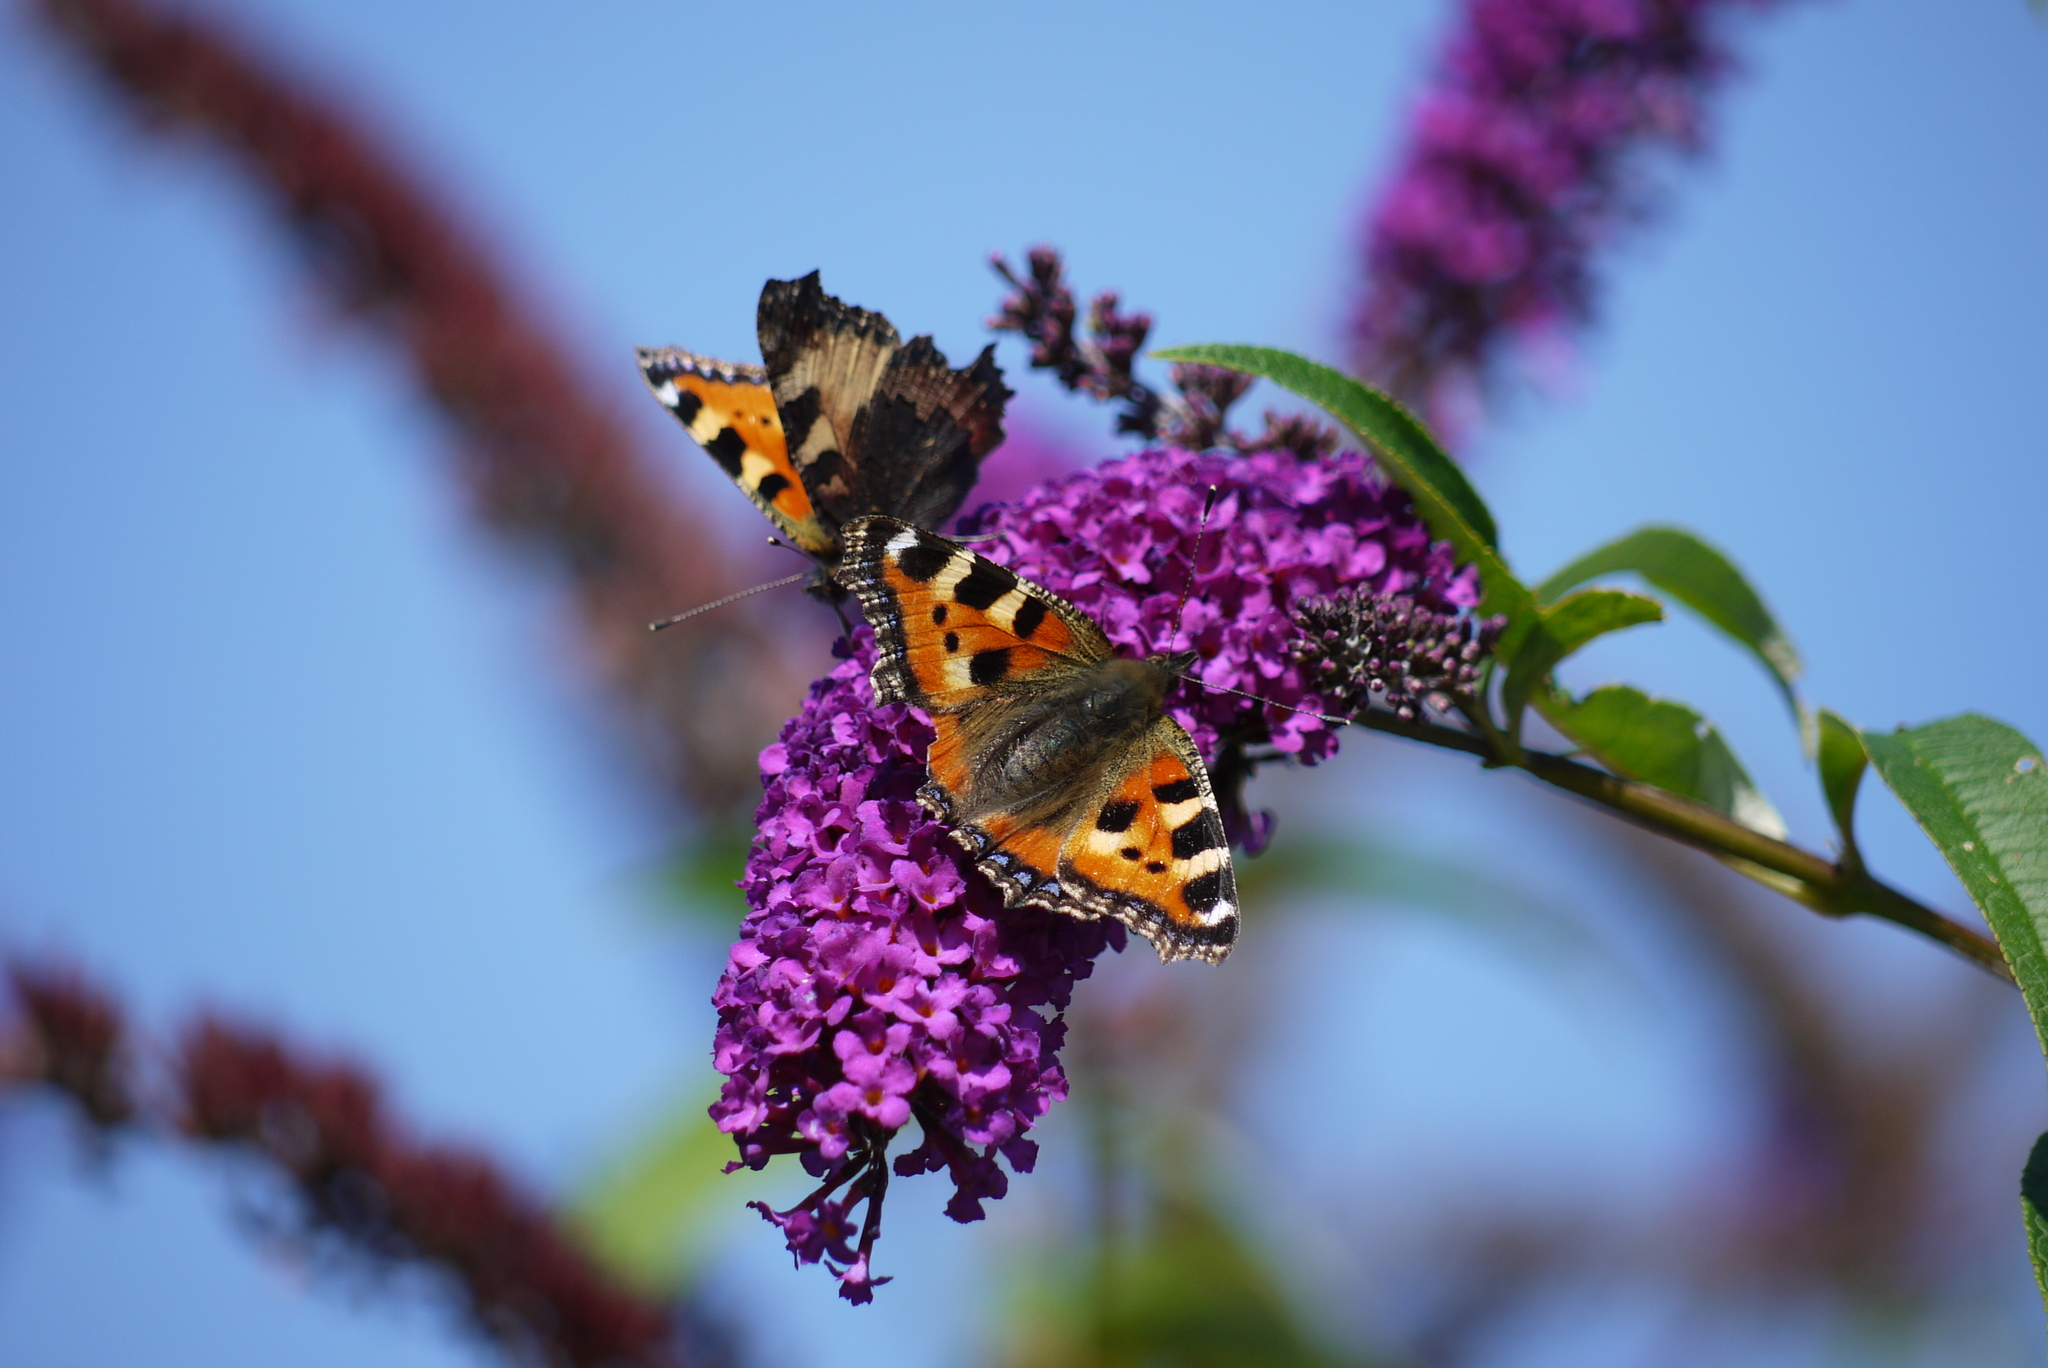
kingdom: Animalia
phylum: Arthropoda
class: Insecta
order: Lepidoptera
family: Nymphalidae
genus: Aglais
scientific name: Aglais urticae
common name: Small tortoiseshell
